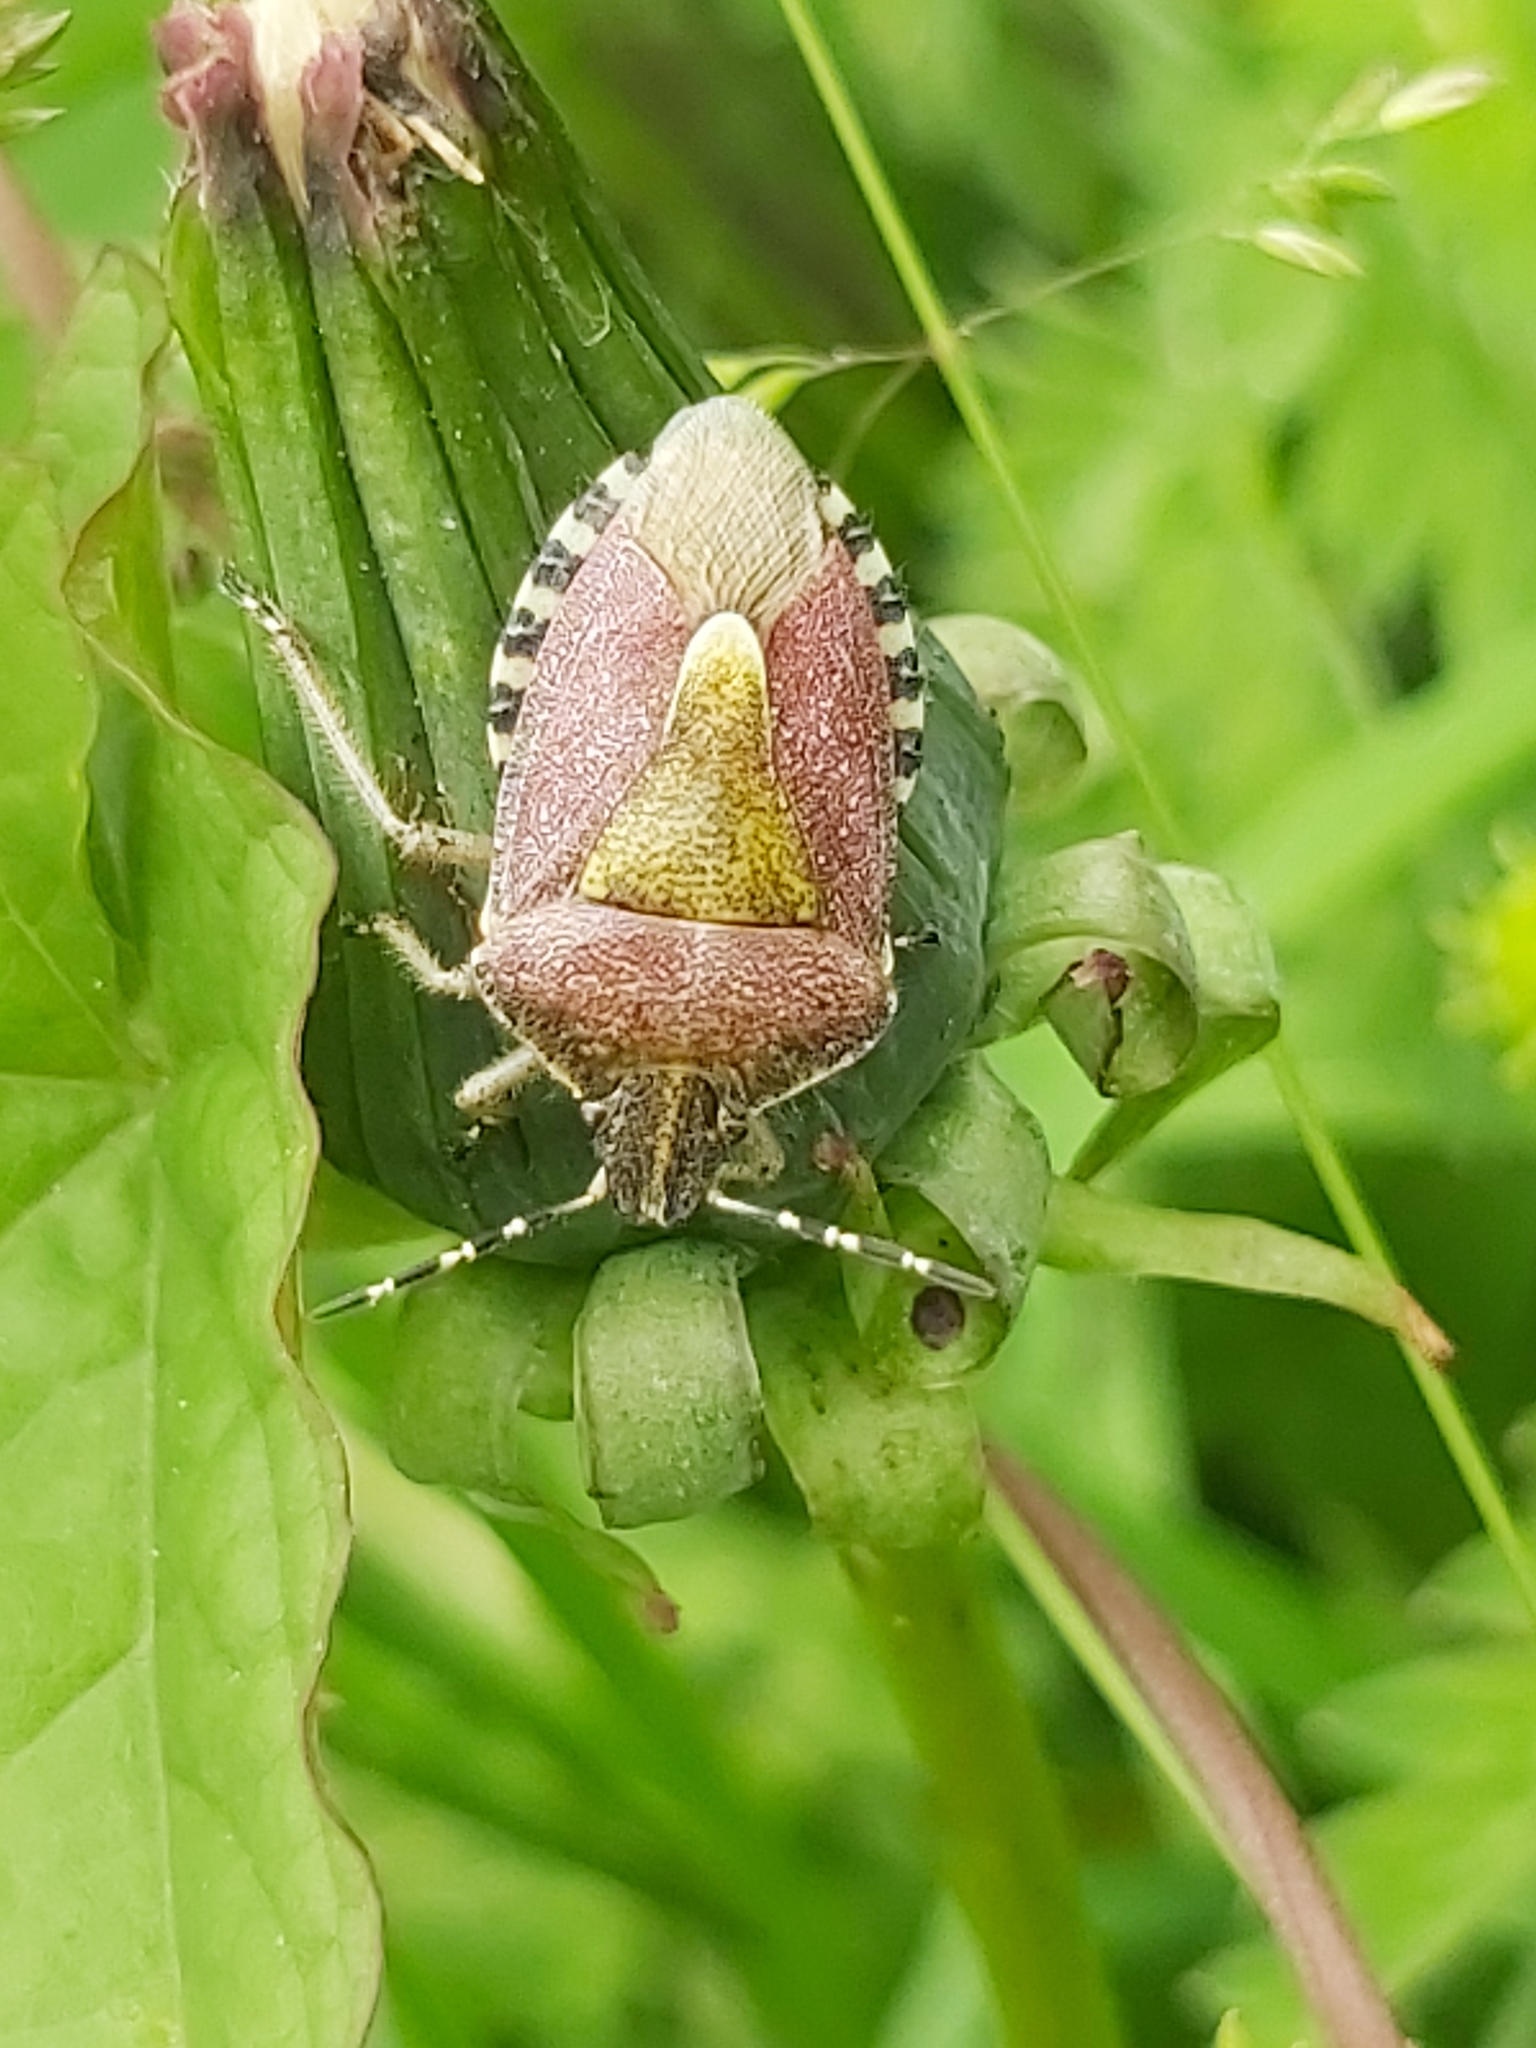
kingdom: Animalia
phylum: Arthropoda
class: Insecta
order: Hemiptera
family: Pentatomidae
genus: Dolycoris
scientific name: Dolycoris baccarum
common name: Sloe bug
